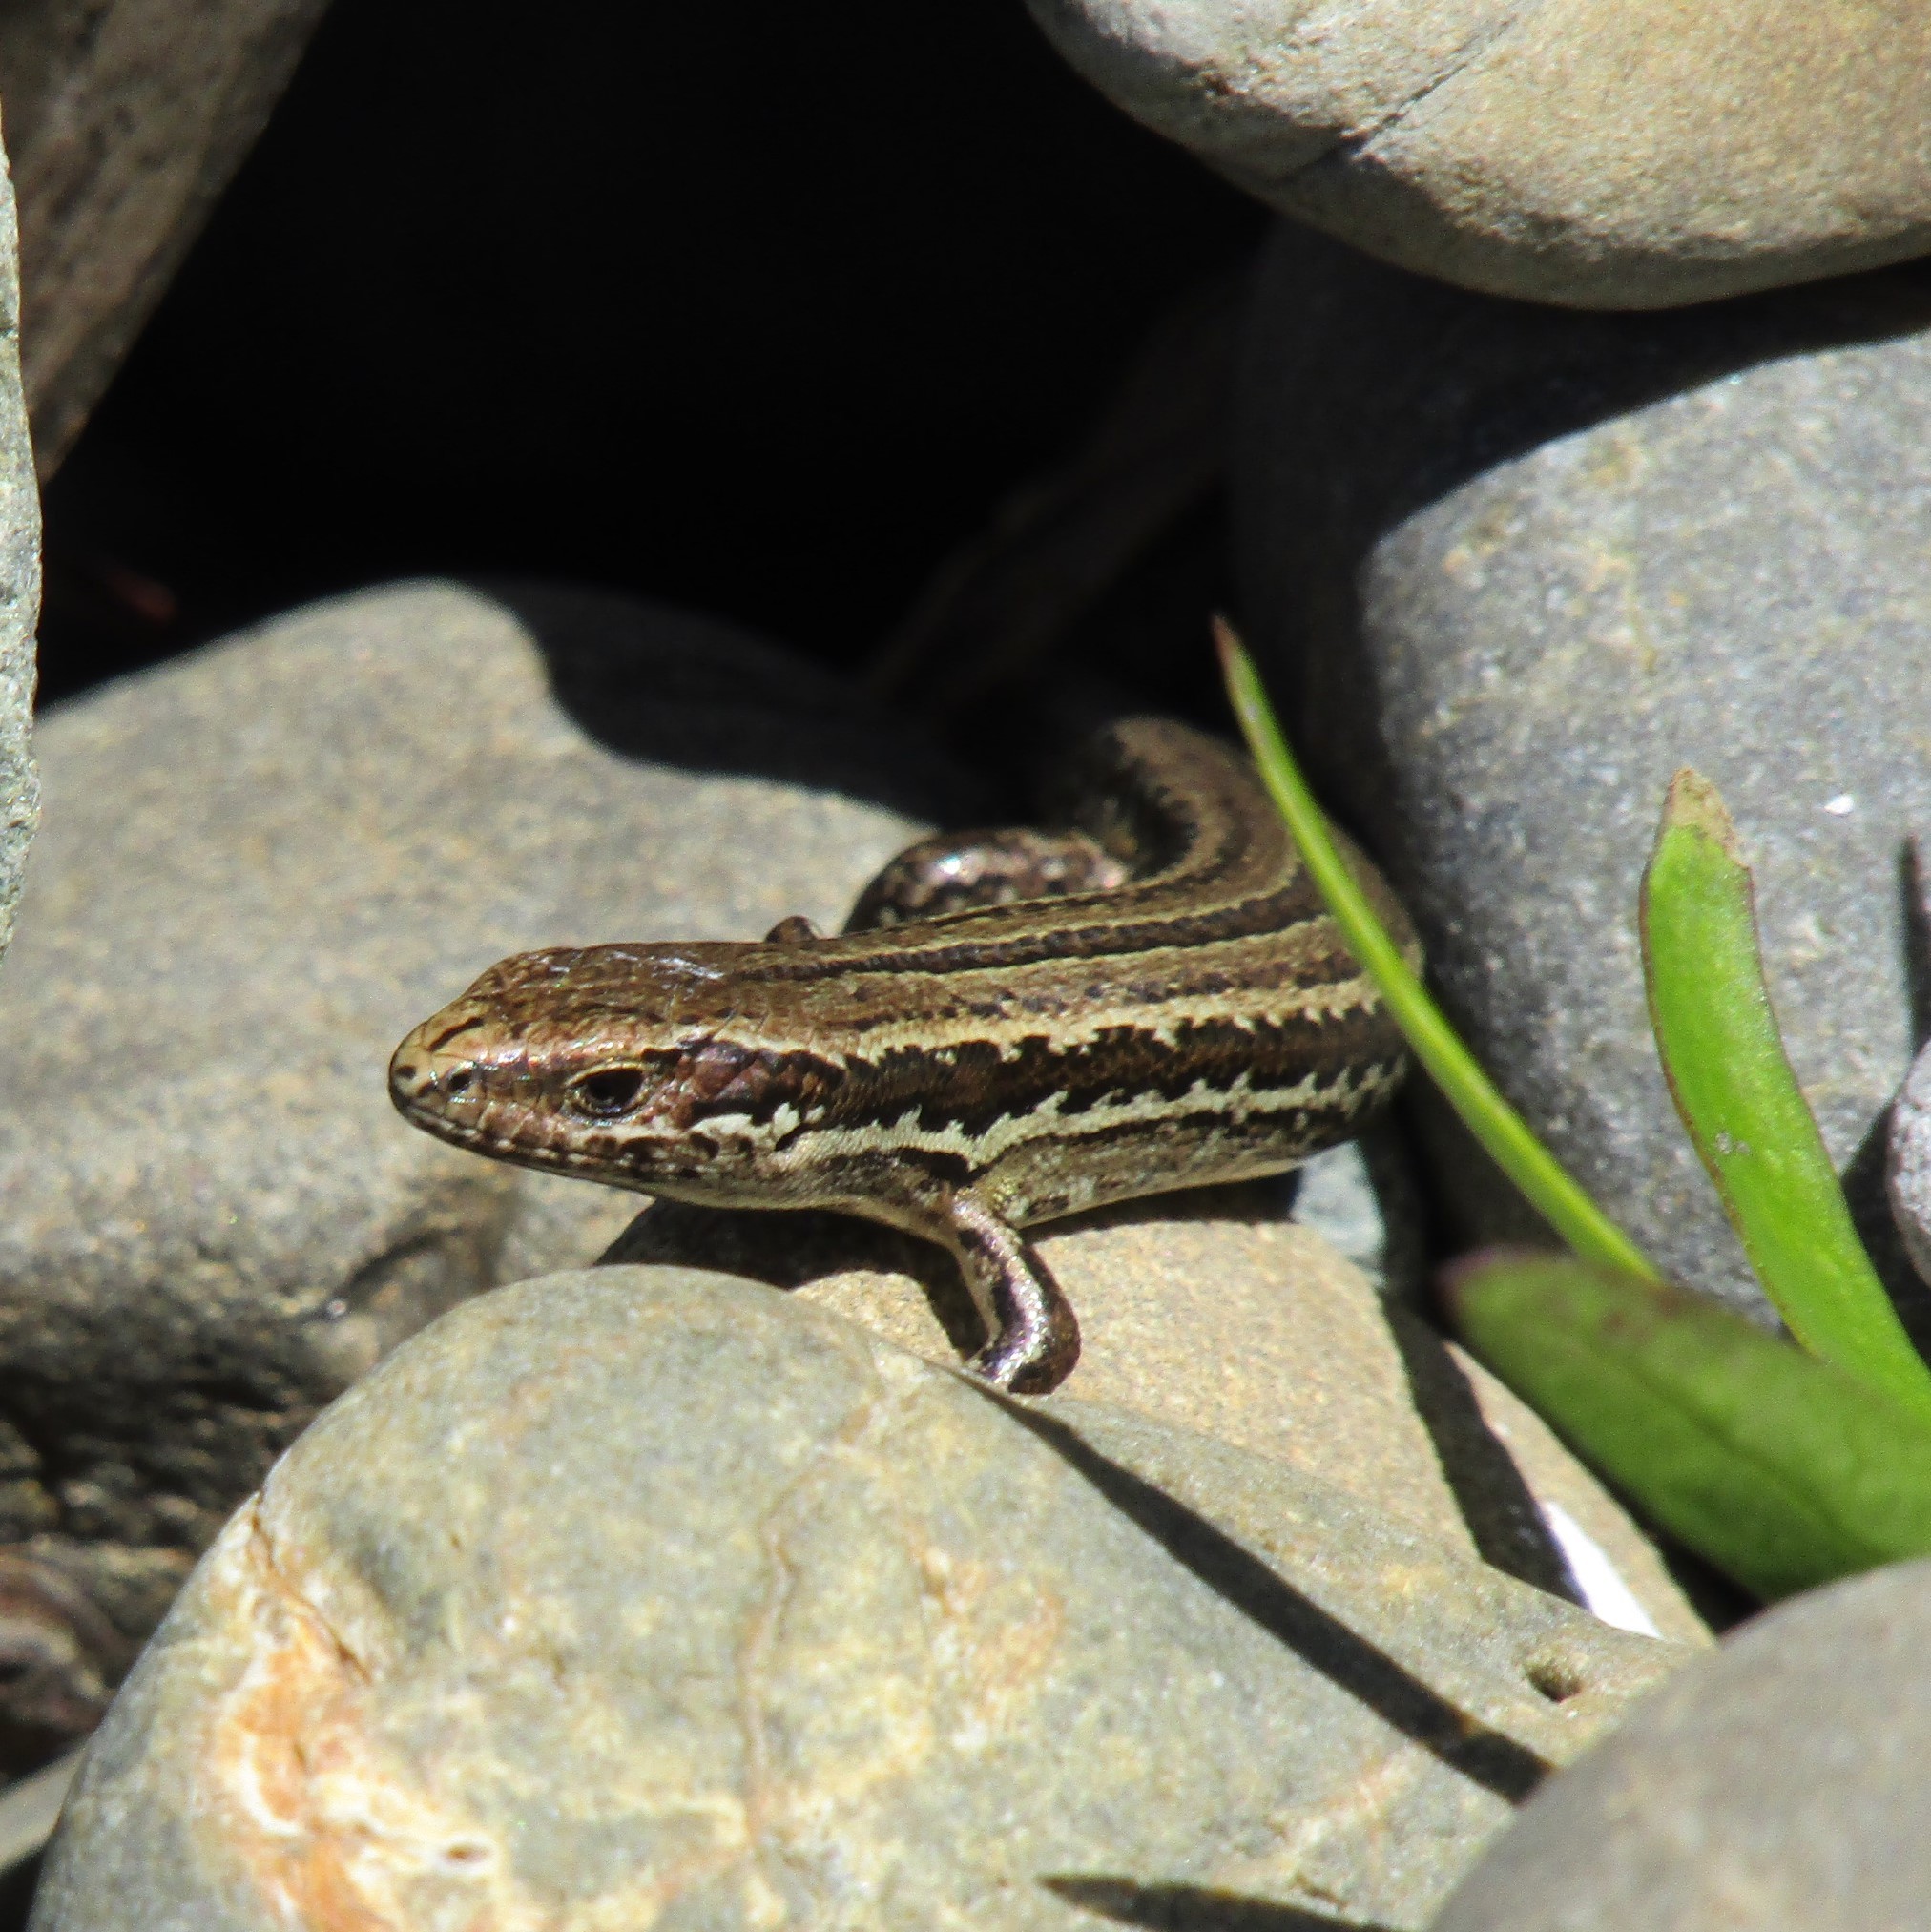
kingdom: Animalia
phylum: Chordata
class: Squamata
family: Scincidae
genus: Oligosoma
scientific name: Oligosoma polychroma
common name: Common new zealand skink
